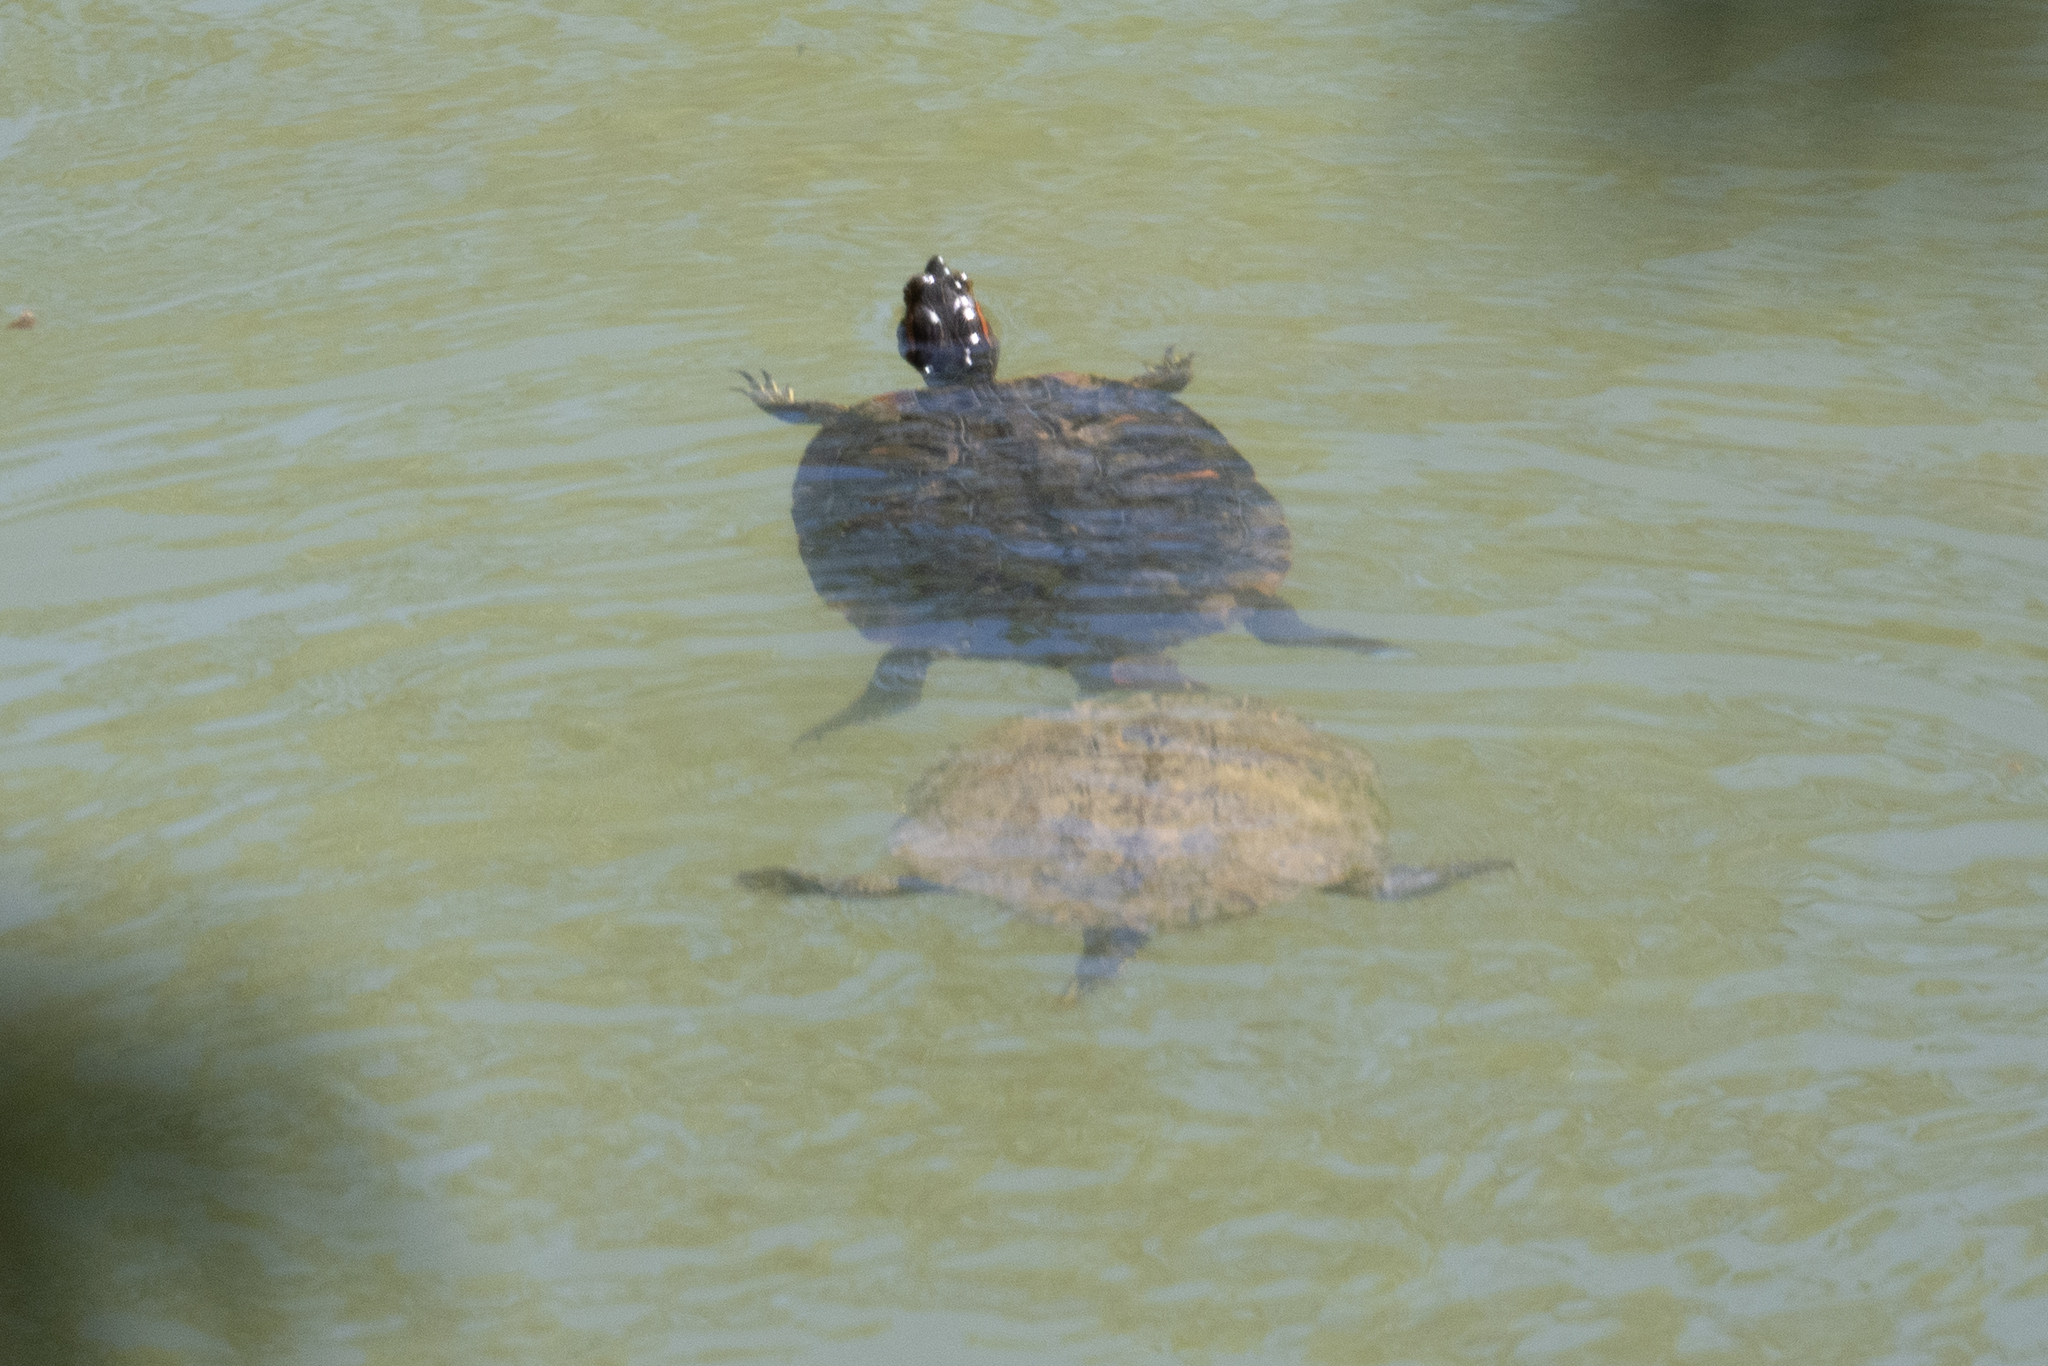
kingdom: Animalia
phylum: Chordata
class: Testudines
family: Emydidae
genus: Trachemys
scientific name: Trachemys scripta
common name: Slider
